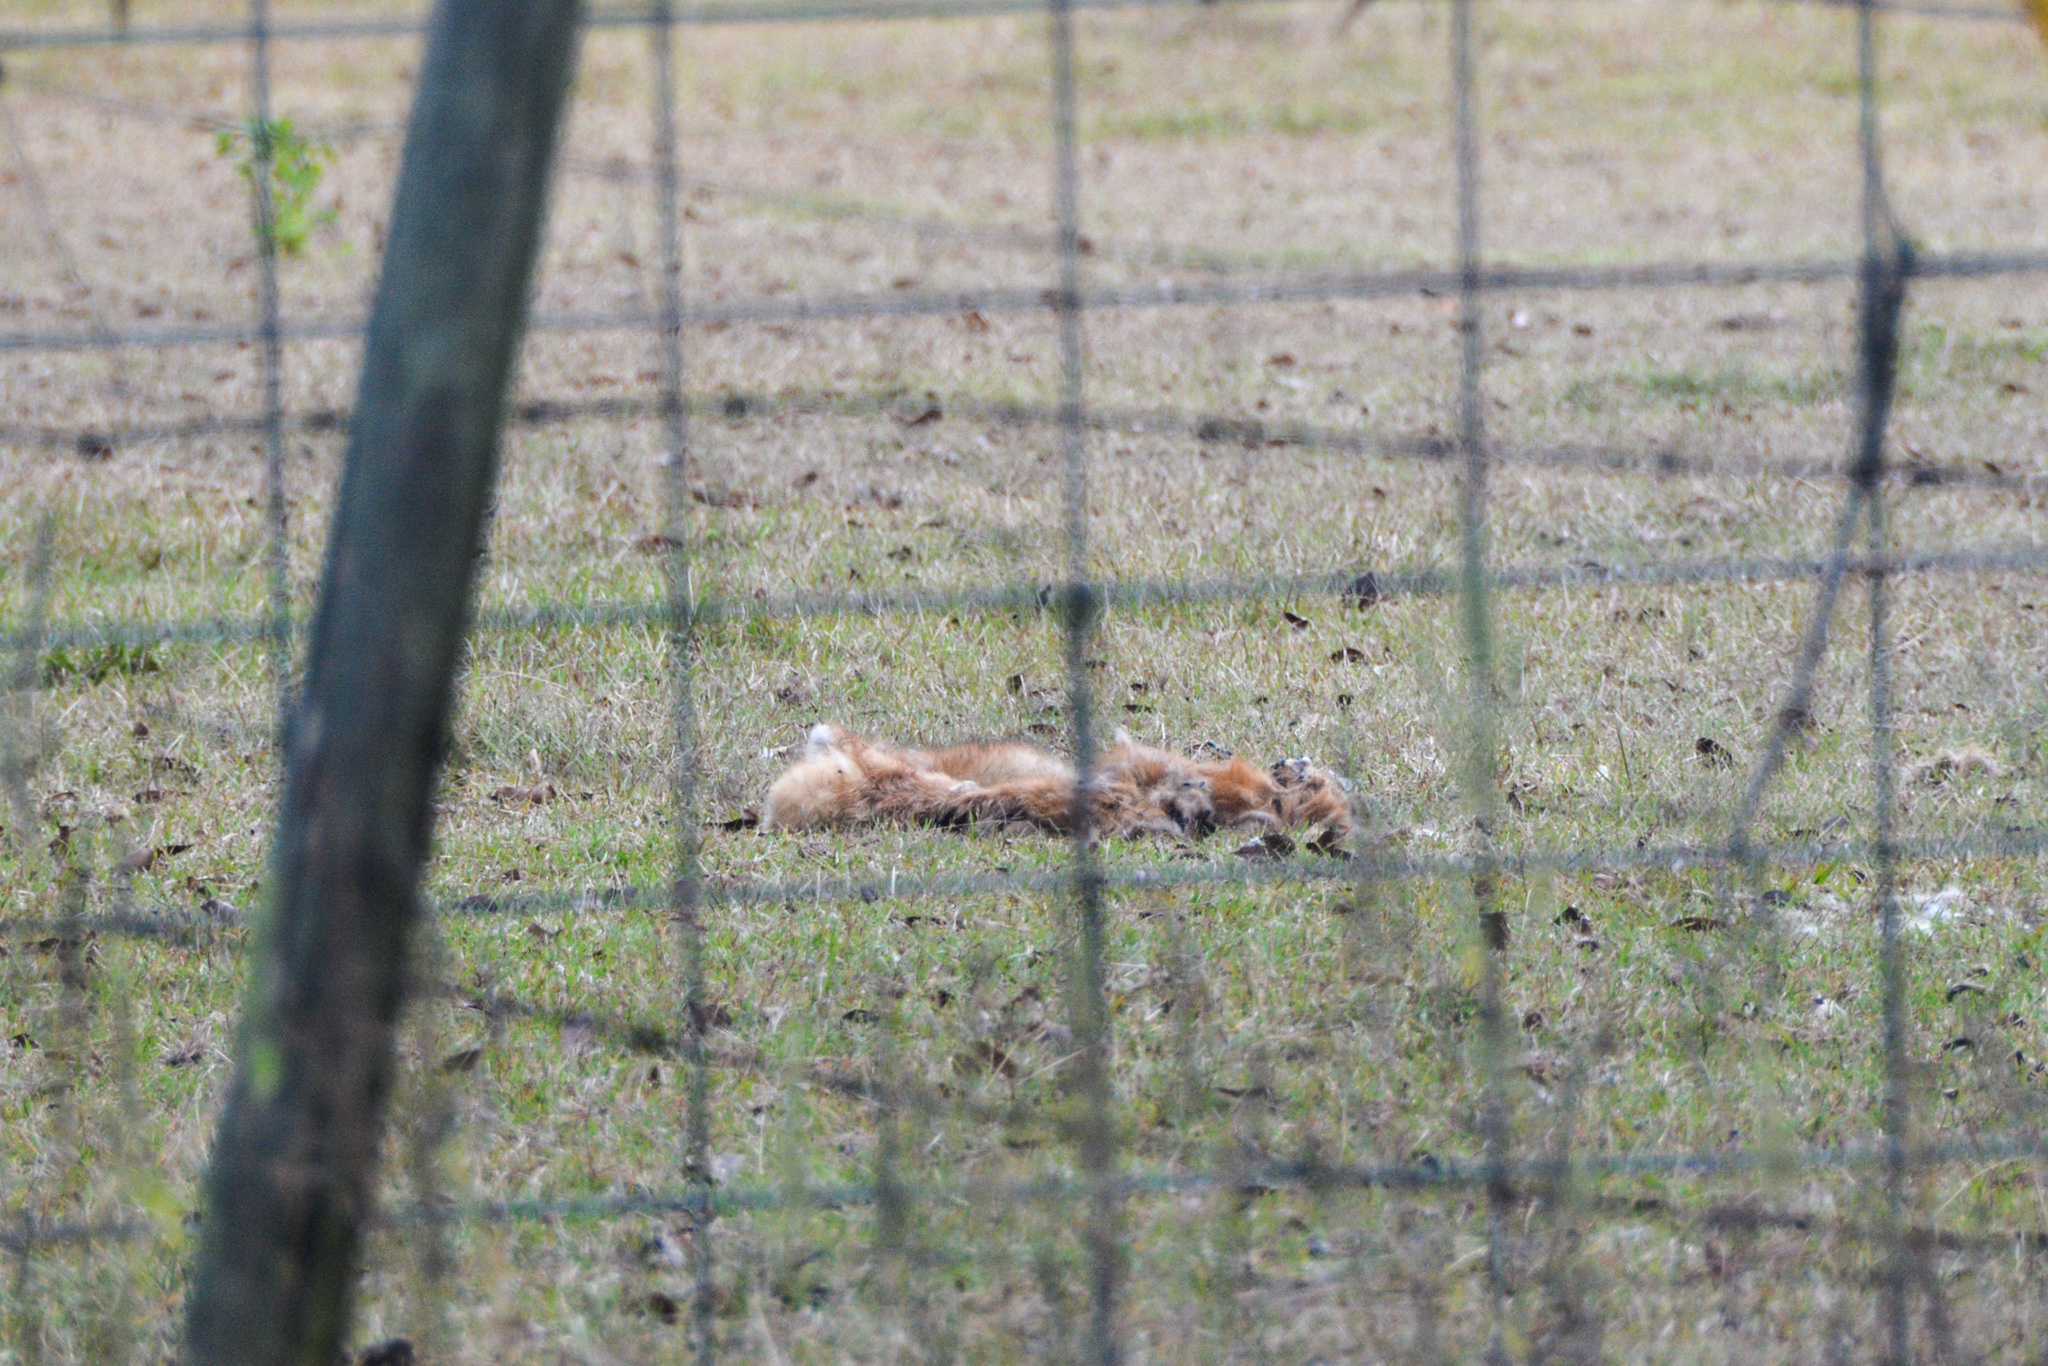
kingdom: Animalia
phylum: Chordata
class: Mammalia
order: Carnivora
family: Canidae
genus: Vulpes
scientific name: Vulpes vulpes
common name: Red fox
